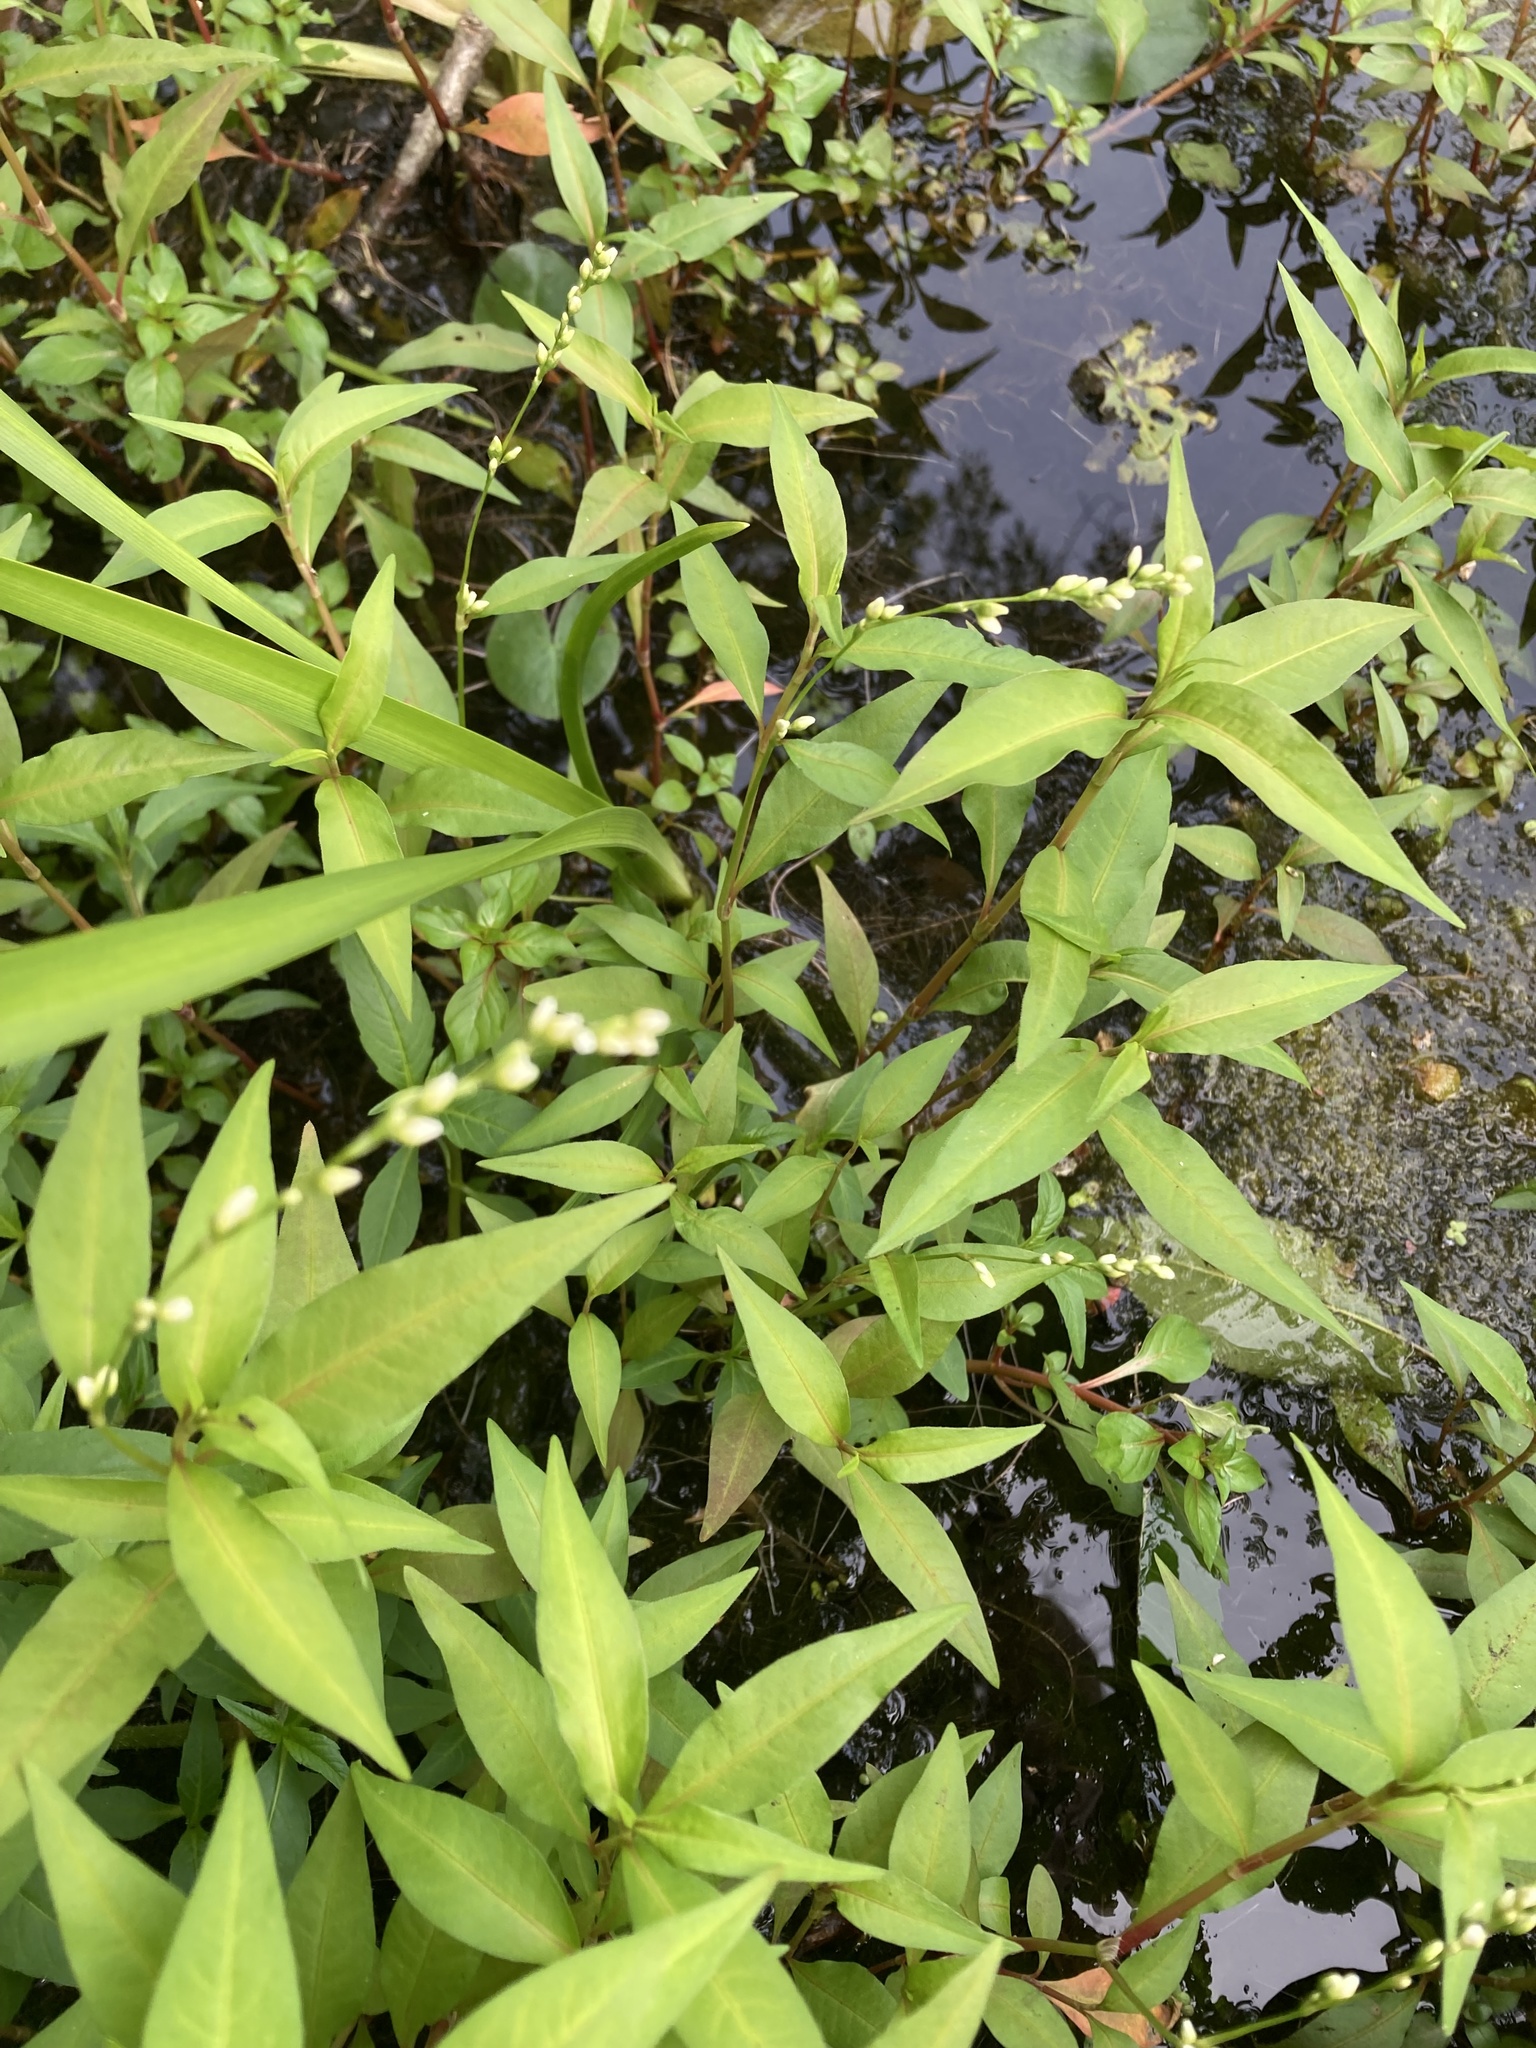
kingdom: Plantae
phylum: Tracheophyta
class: Magnoliopsida
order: Caryophyllales
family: Polygonaceae
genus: Persicaria
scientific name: Persicaria punctata
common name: Dotted smartweed
